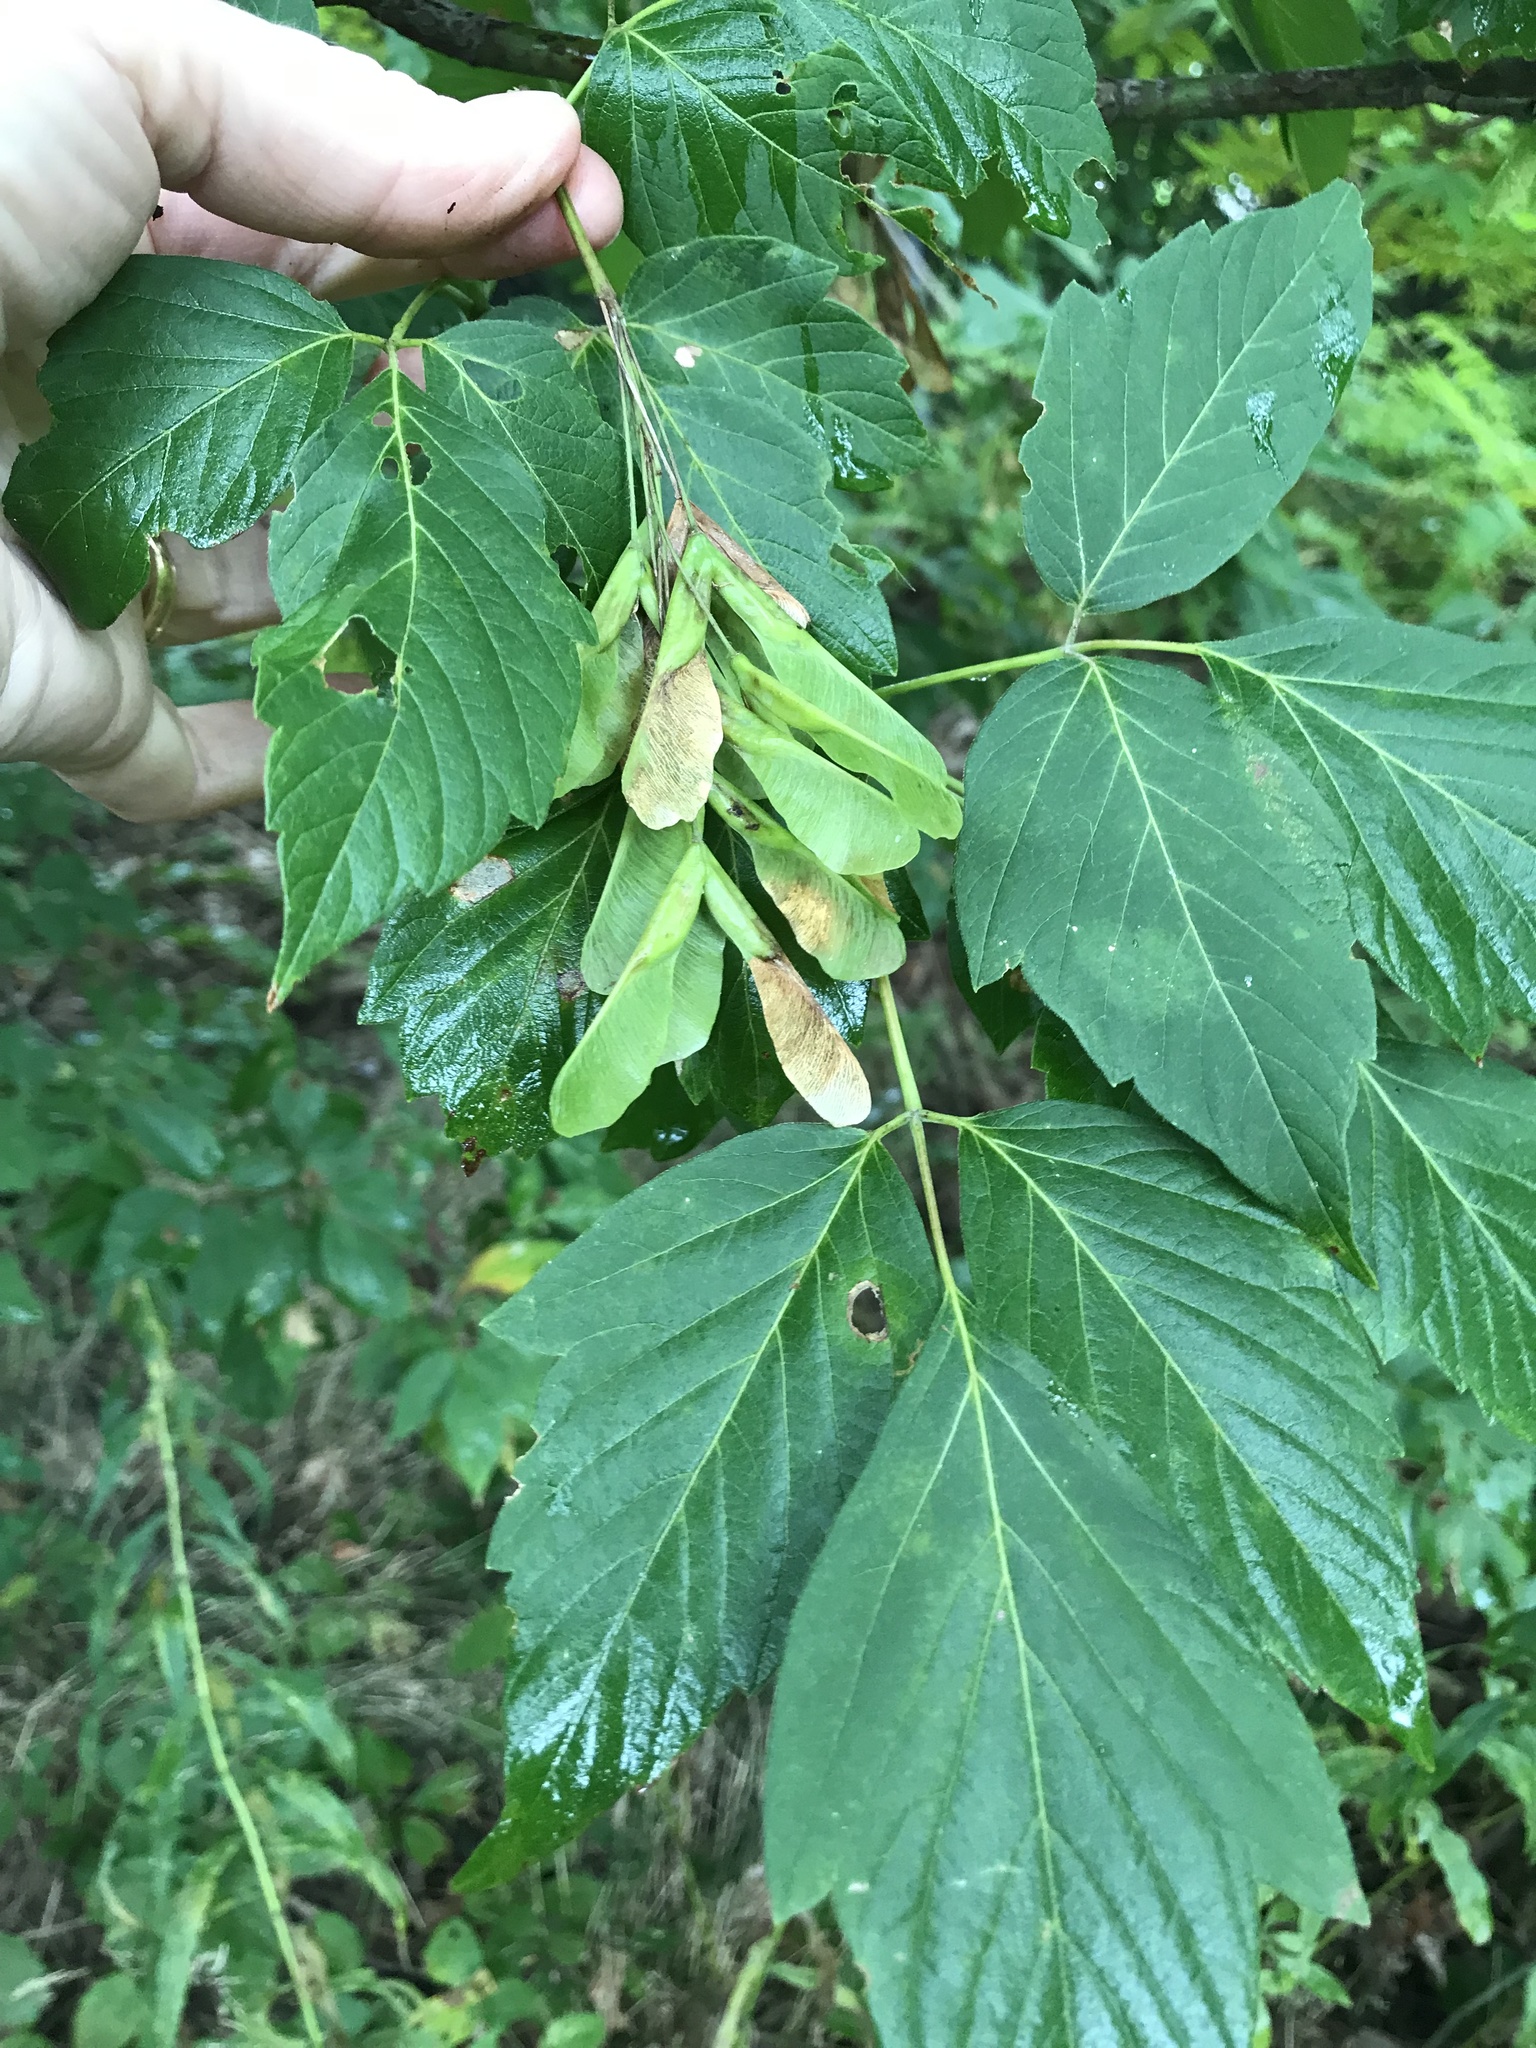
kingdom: Plantae
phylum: Tracheophyta
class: Magnoliopsida
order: Sapindales
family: Sapindaceae
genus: Acer
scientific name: Acer negundo
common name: Ashleaf maple
